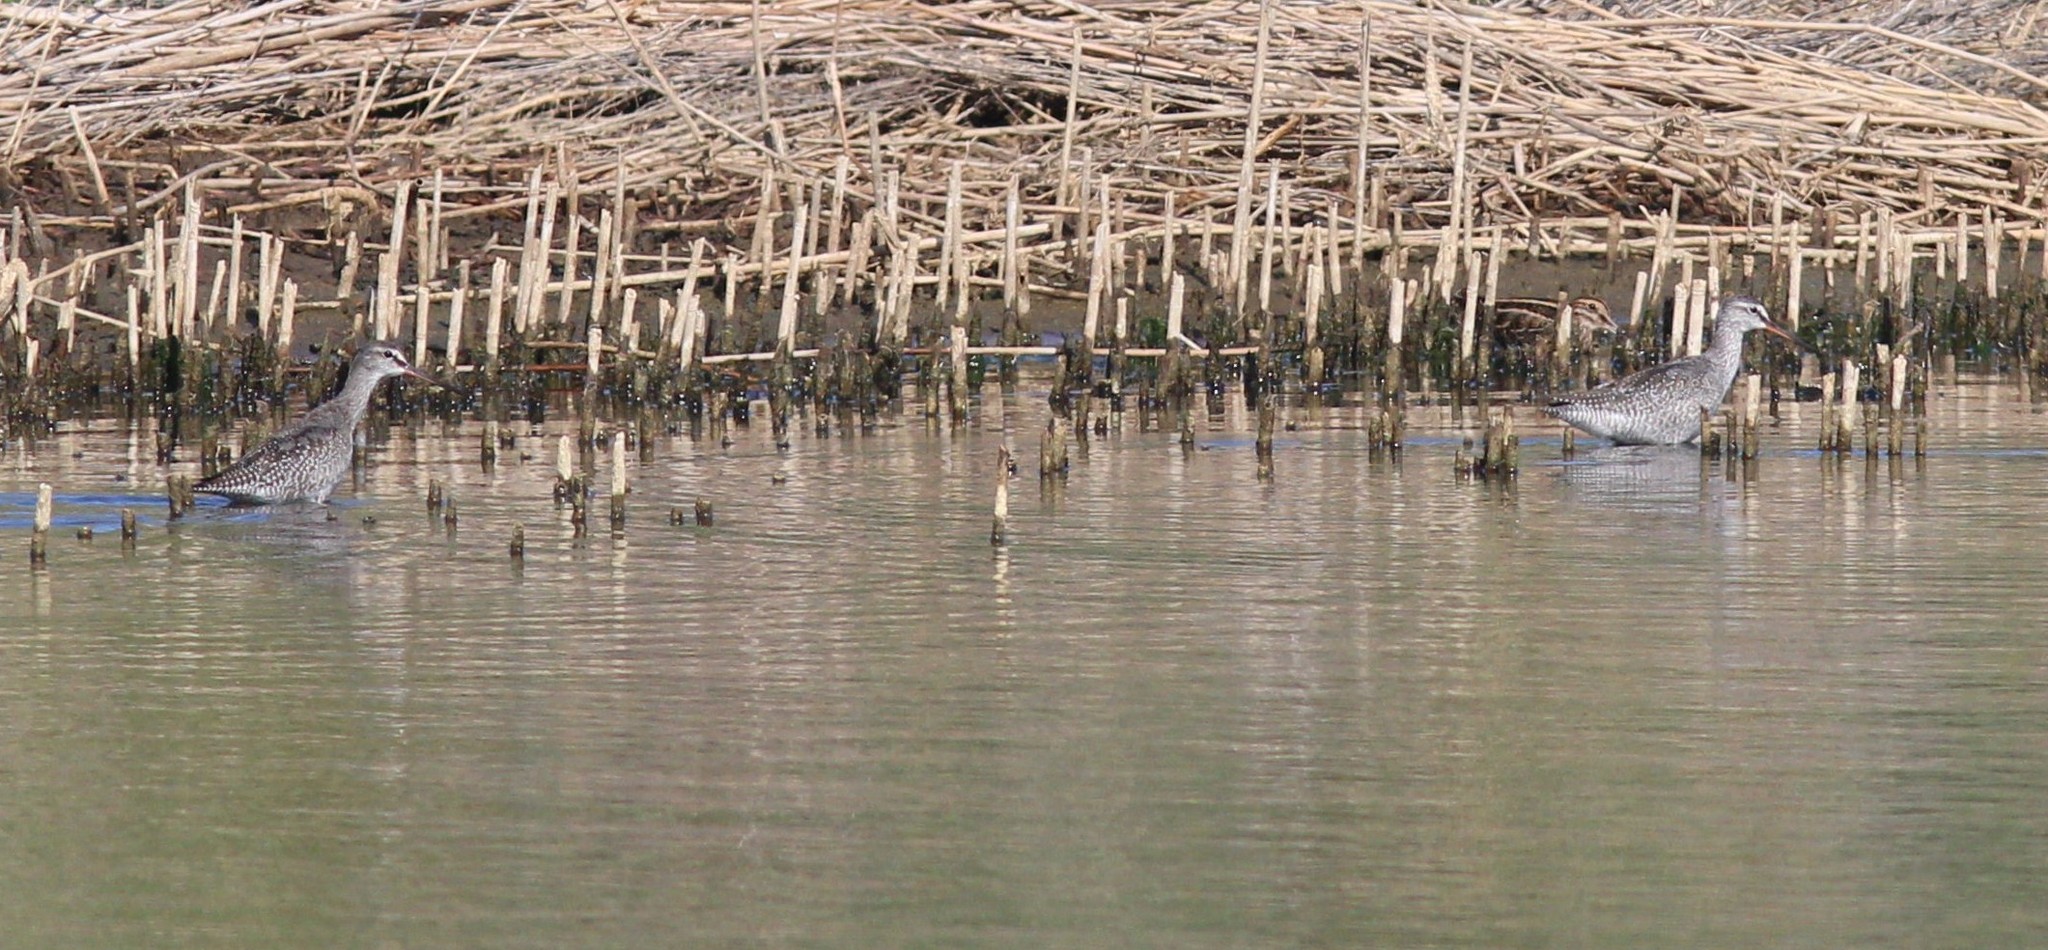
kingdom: Animalia
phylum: Chordata
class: Aves
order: Charadriiformes
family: Scolopacidae
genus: Tringa
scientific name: Tringa erythropus
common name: Spotted redshank
